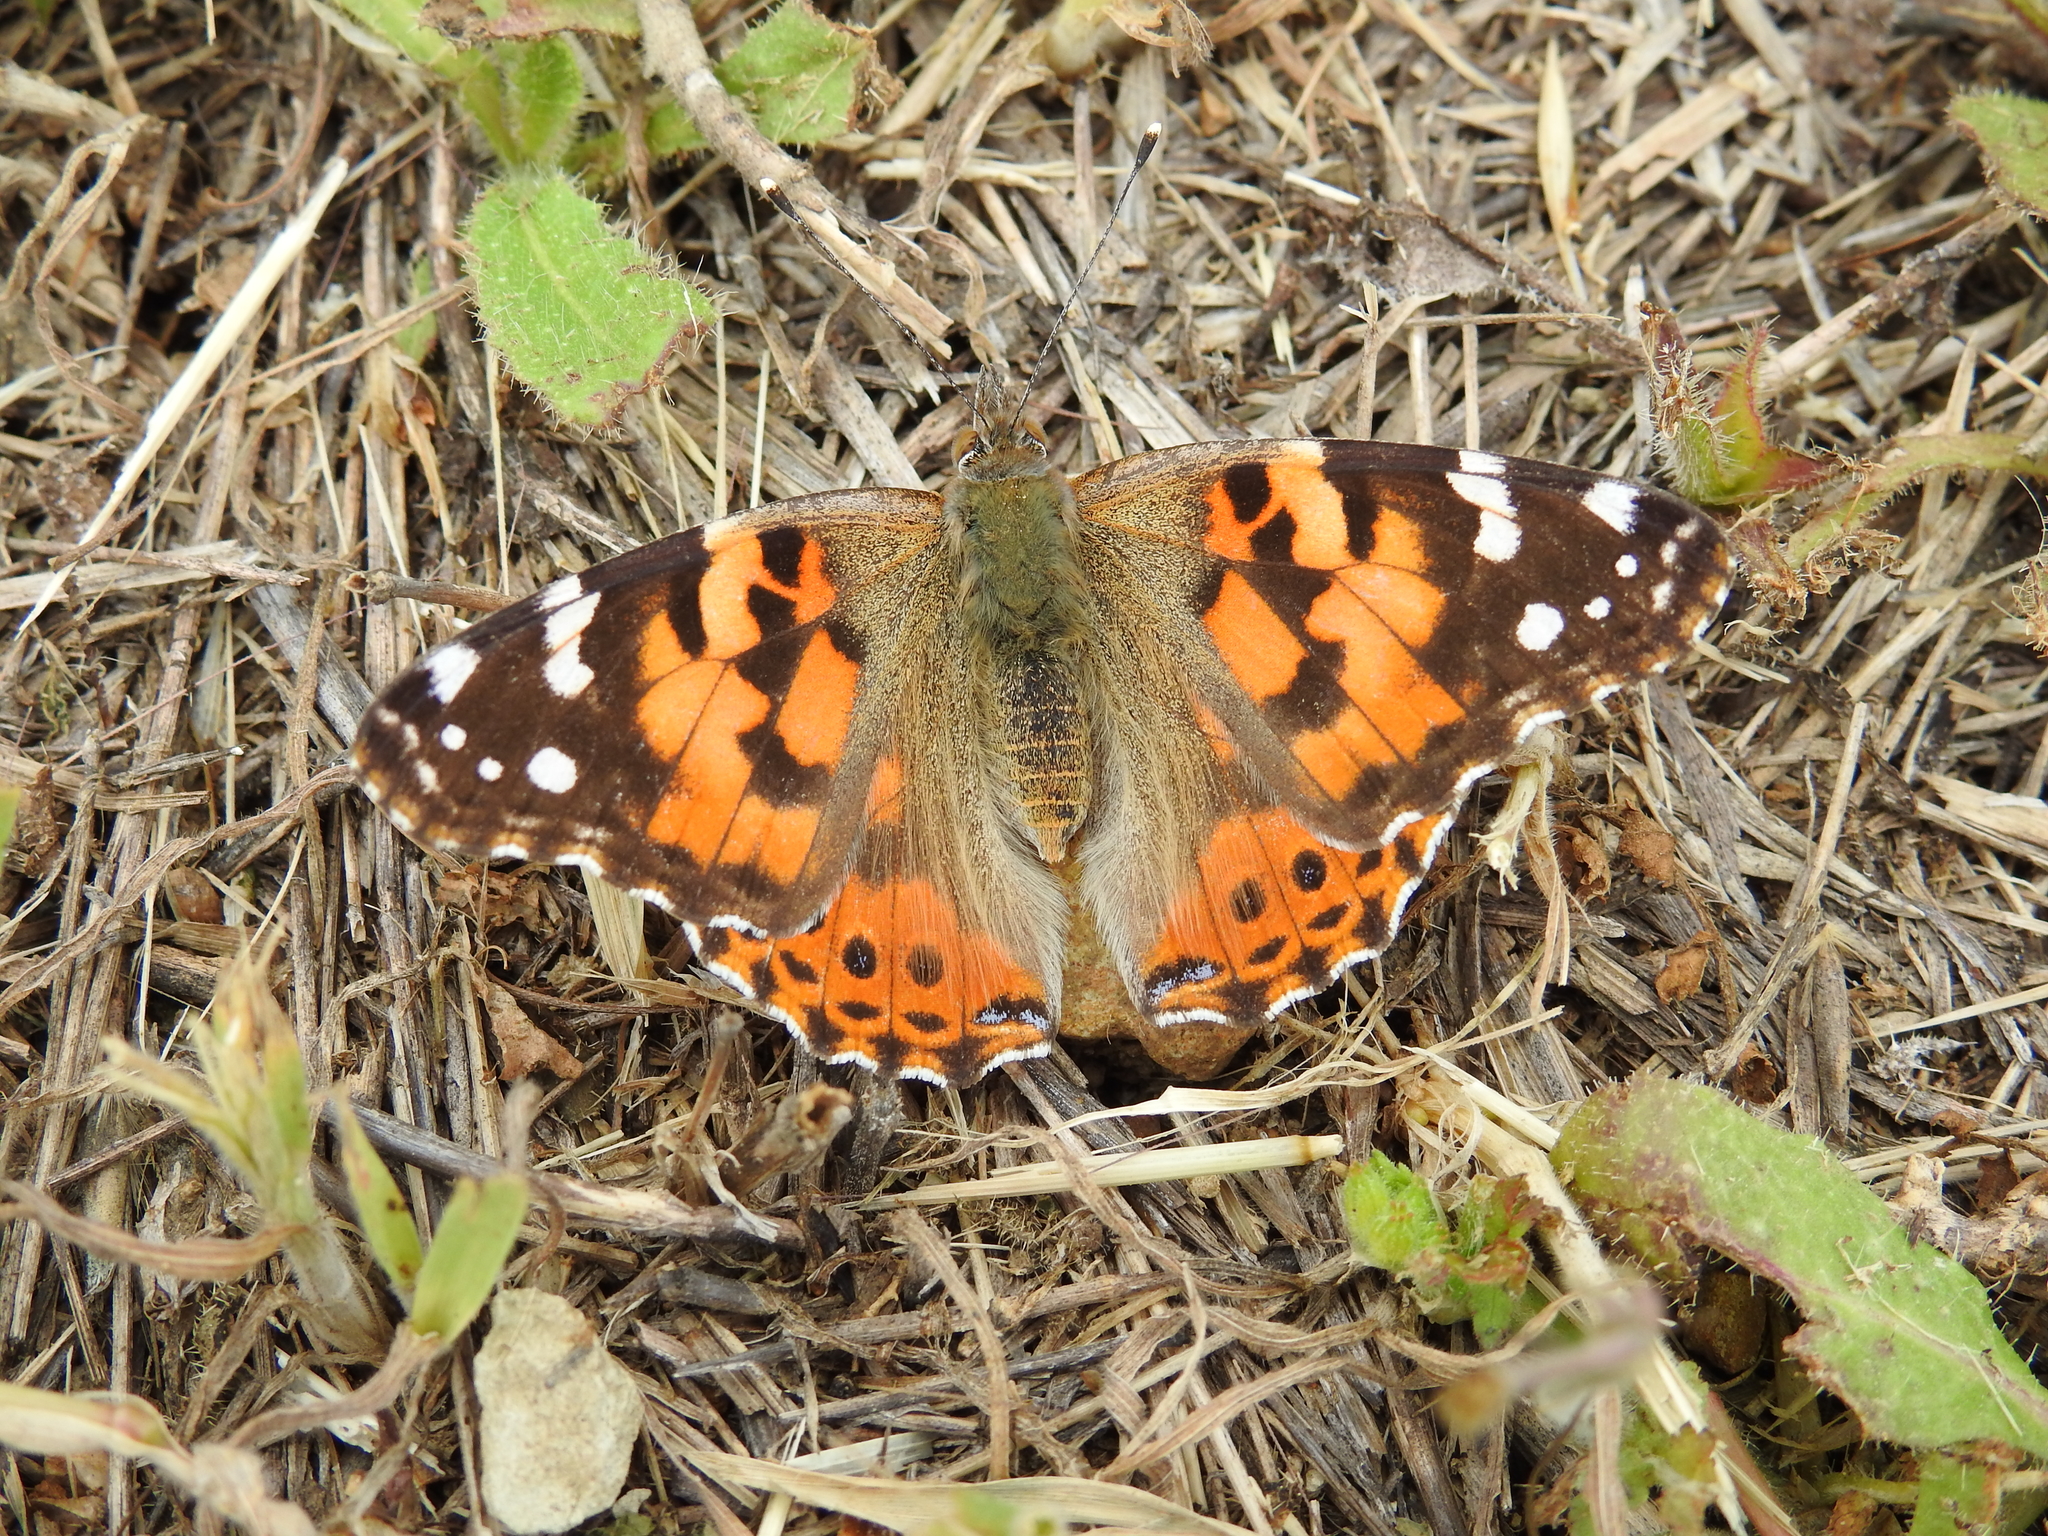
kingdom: Animalia
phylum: Arthropoda
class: Insecta
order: Lepidoptera
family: Nymphalidae
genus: Vanessa
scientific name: Vanessa cardui
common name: Painted lady
